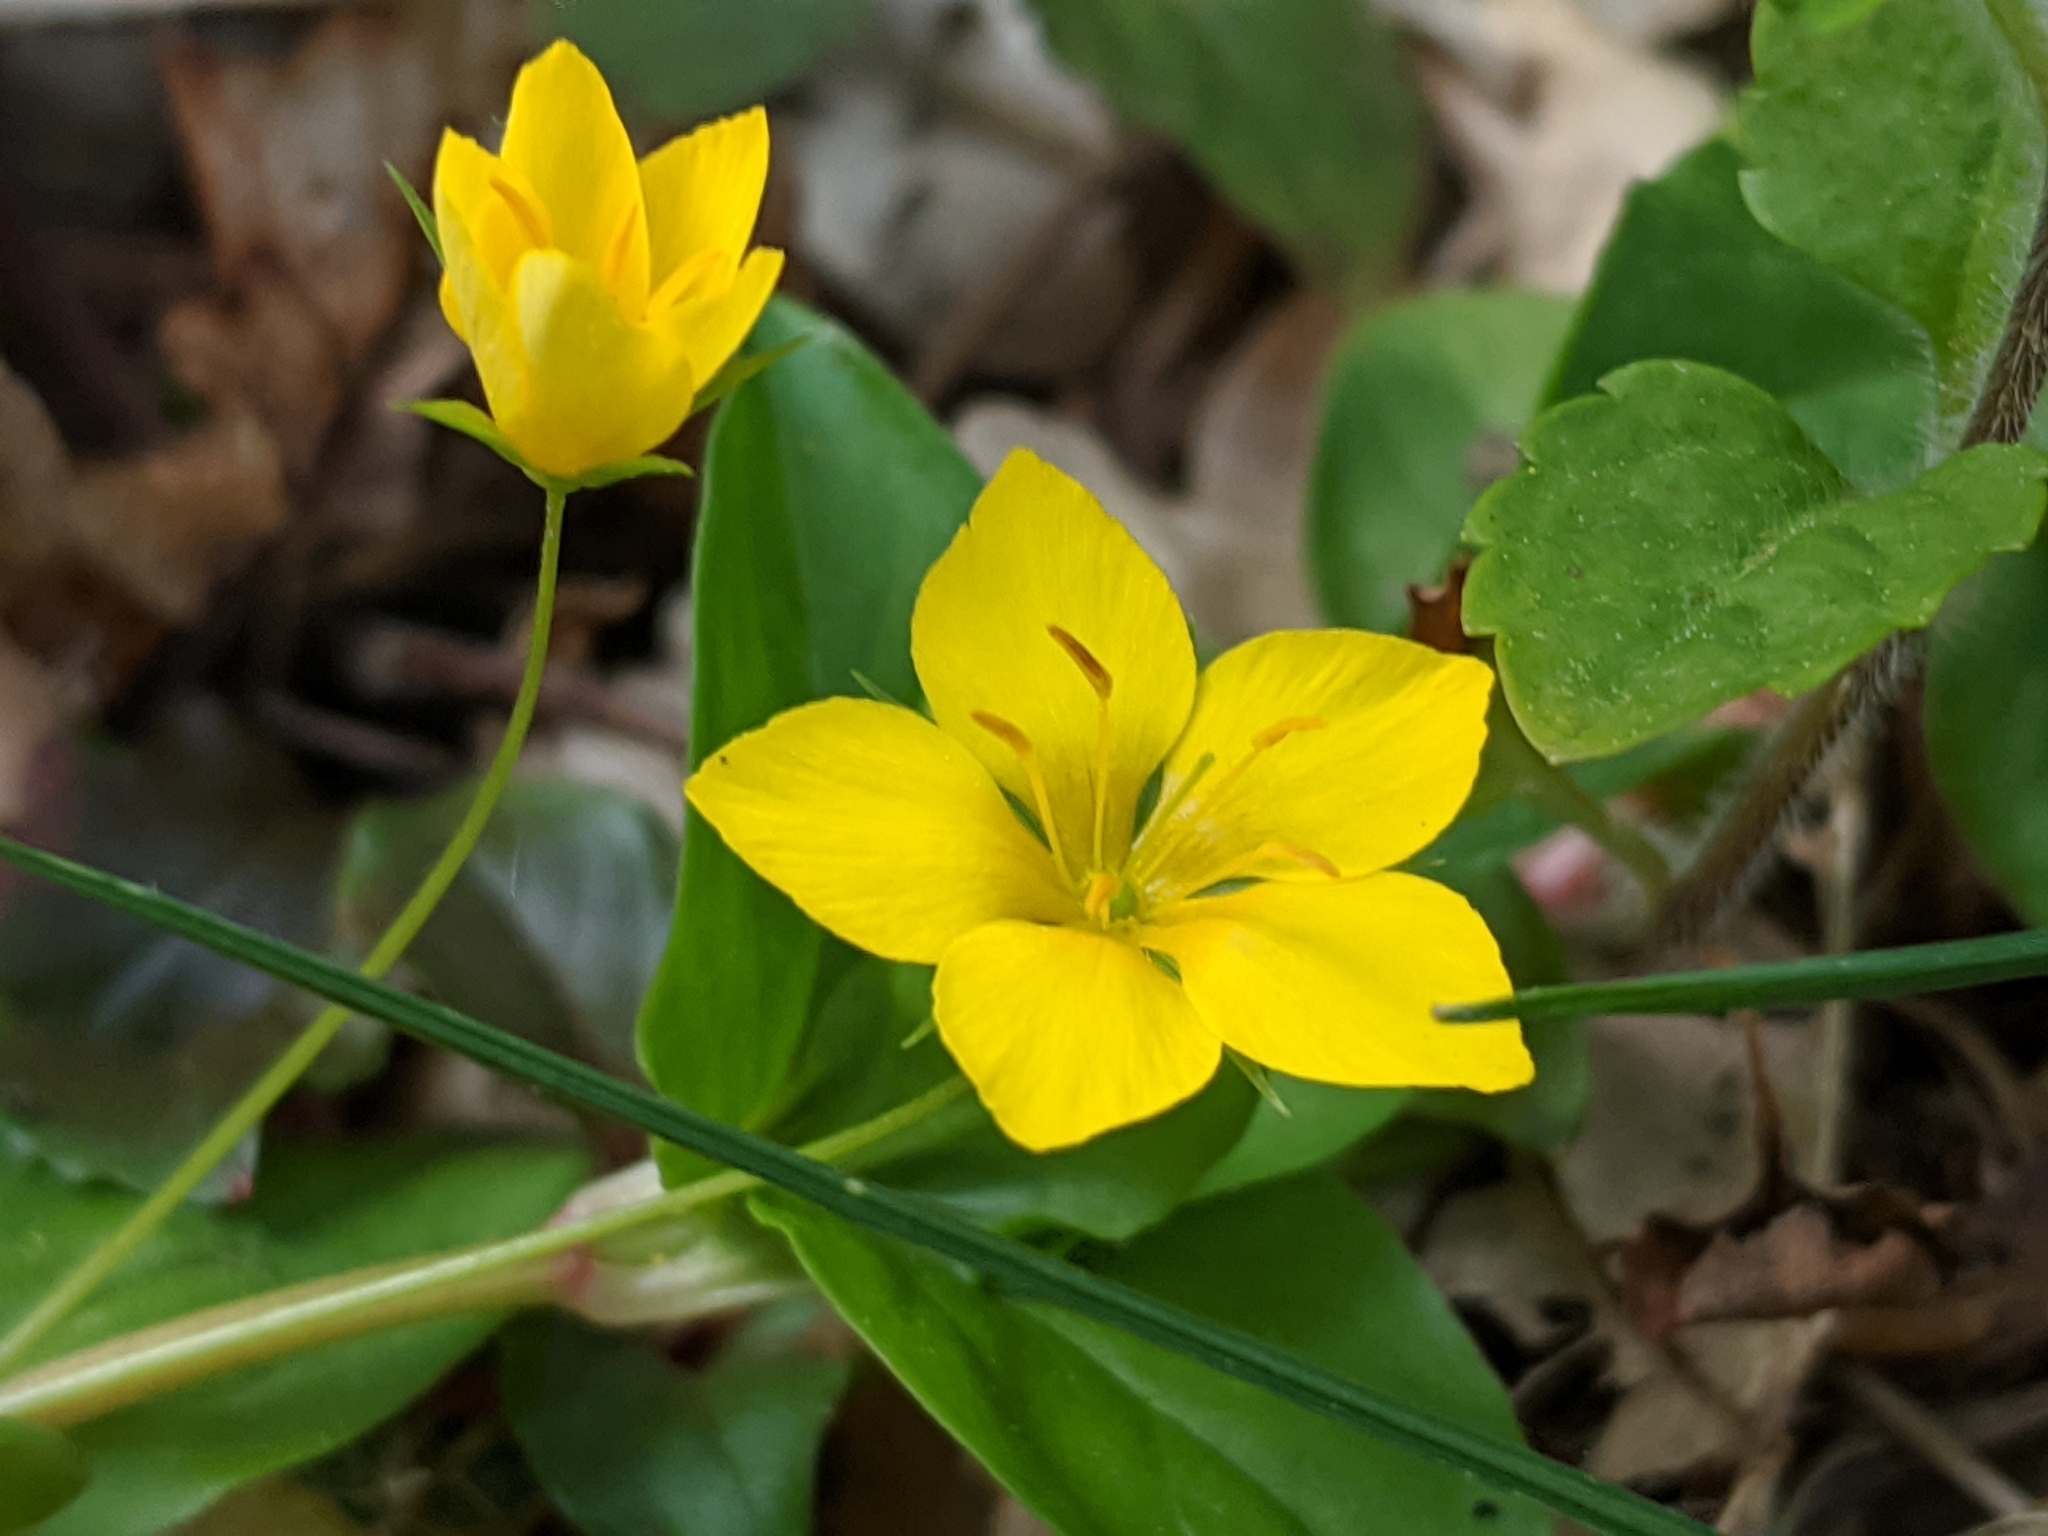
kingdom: Plantae
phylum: Tracheophyta
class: Magnoliopsida
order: Ericales
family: Primulaceae
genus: Lysimachia
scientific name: Lysimachia nemorum
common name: Yellow pimpernel
